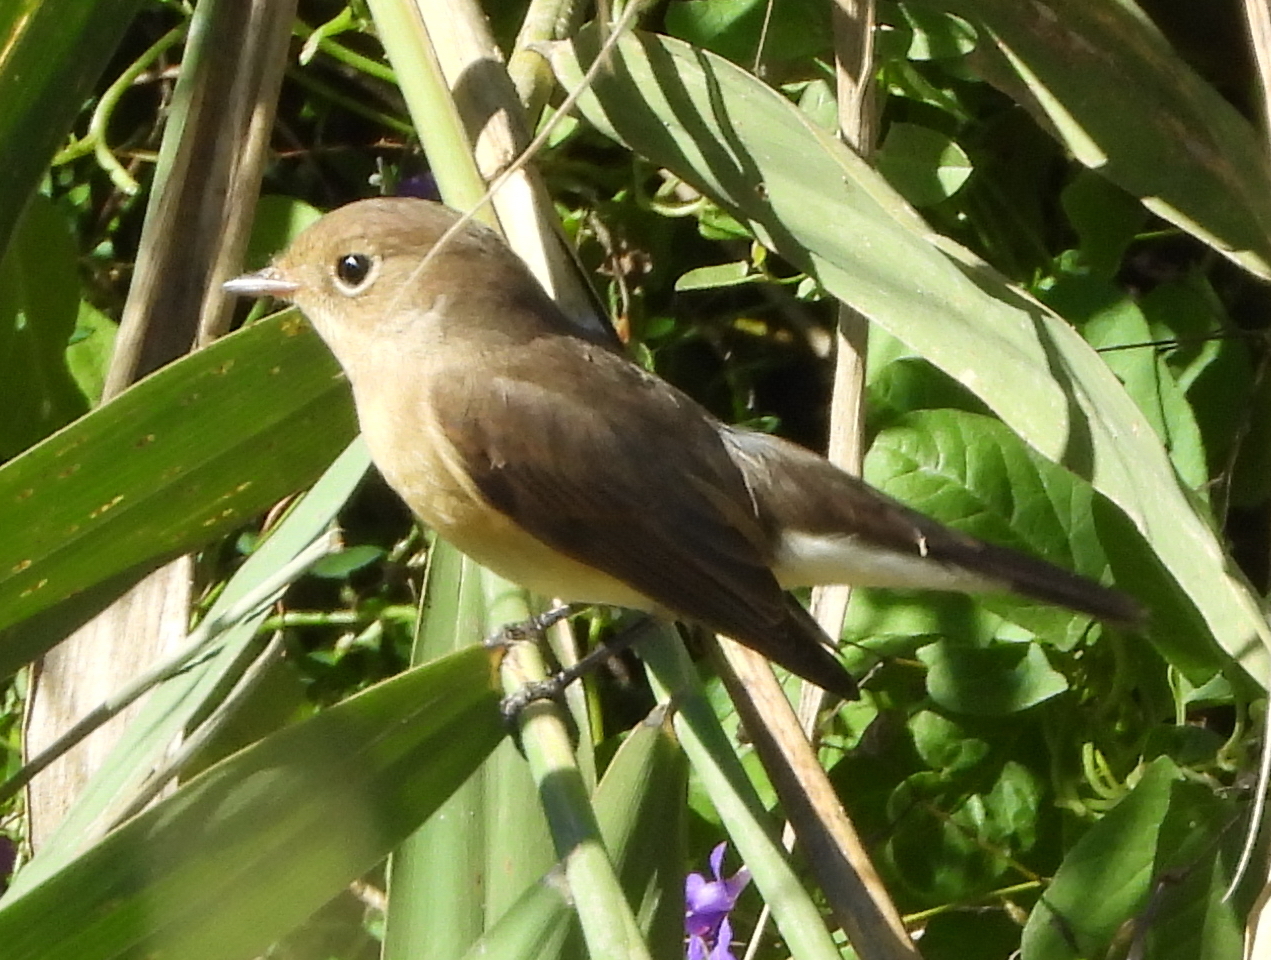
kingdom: Animalia
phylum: Chordata
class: Aves
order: Passeriformes
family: Muscicapidae
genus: Ficedula
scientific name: Ficedula parva
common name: Red-breasted flycatcher
